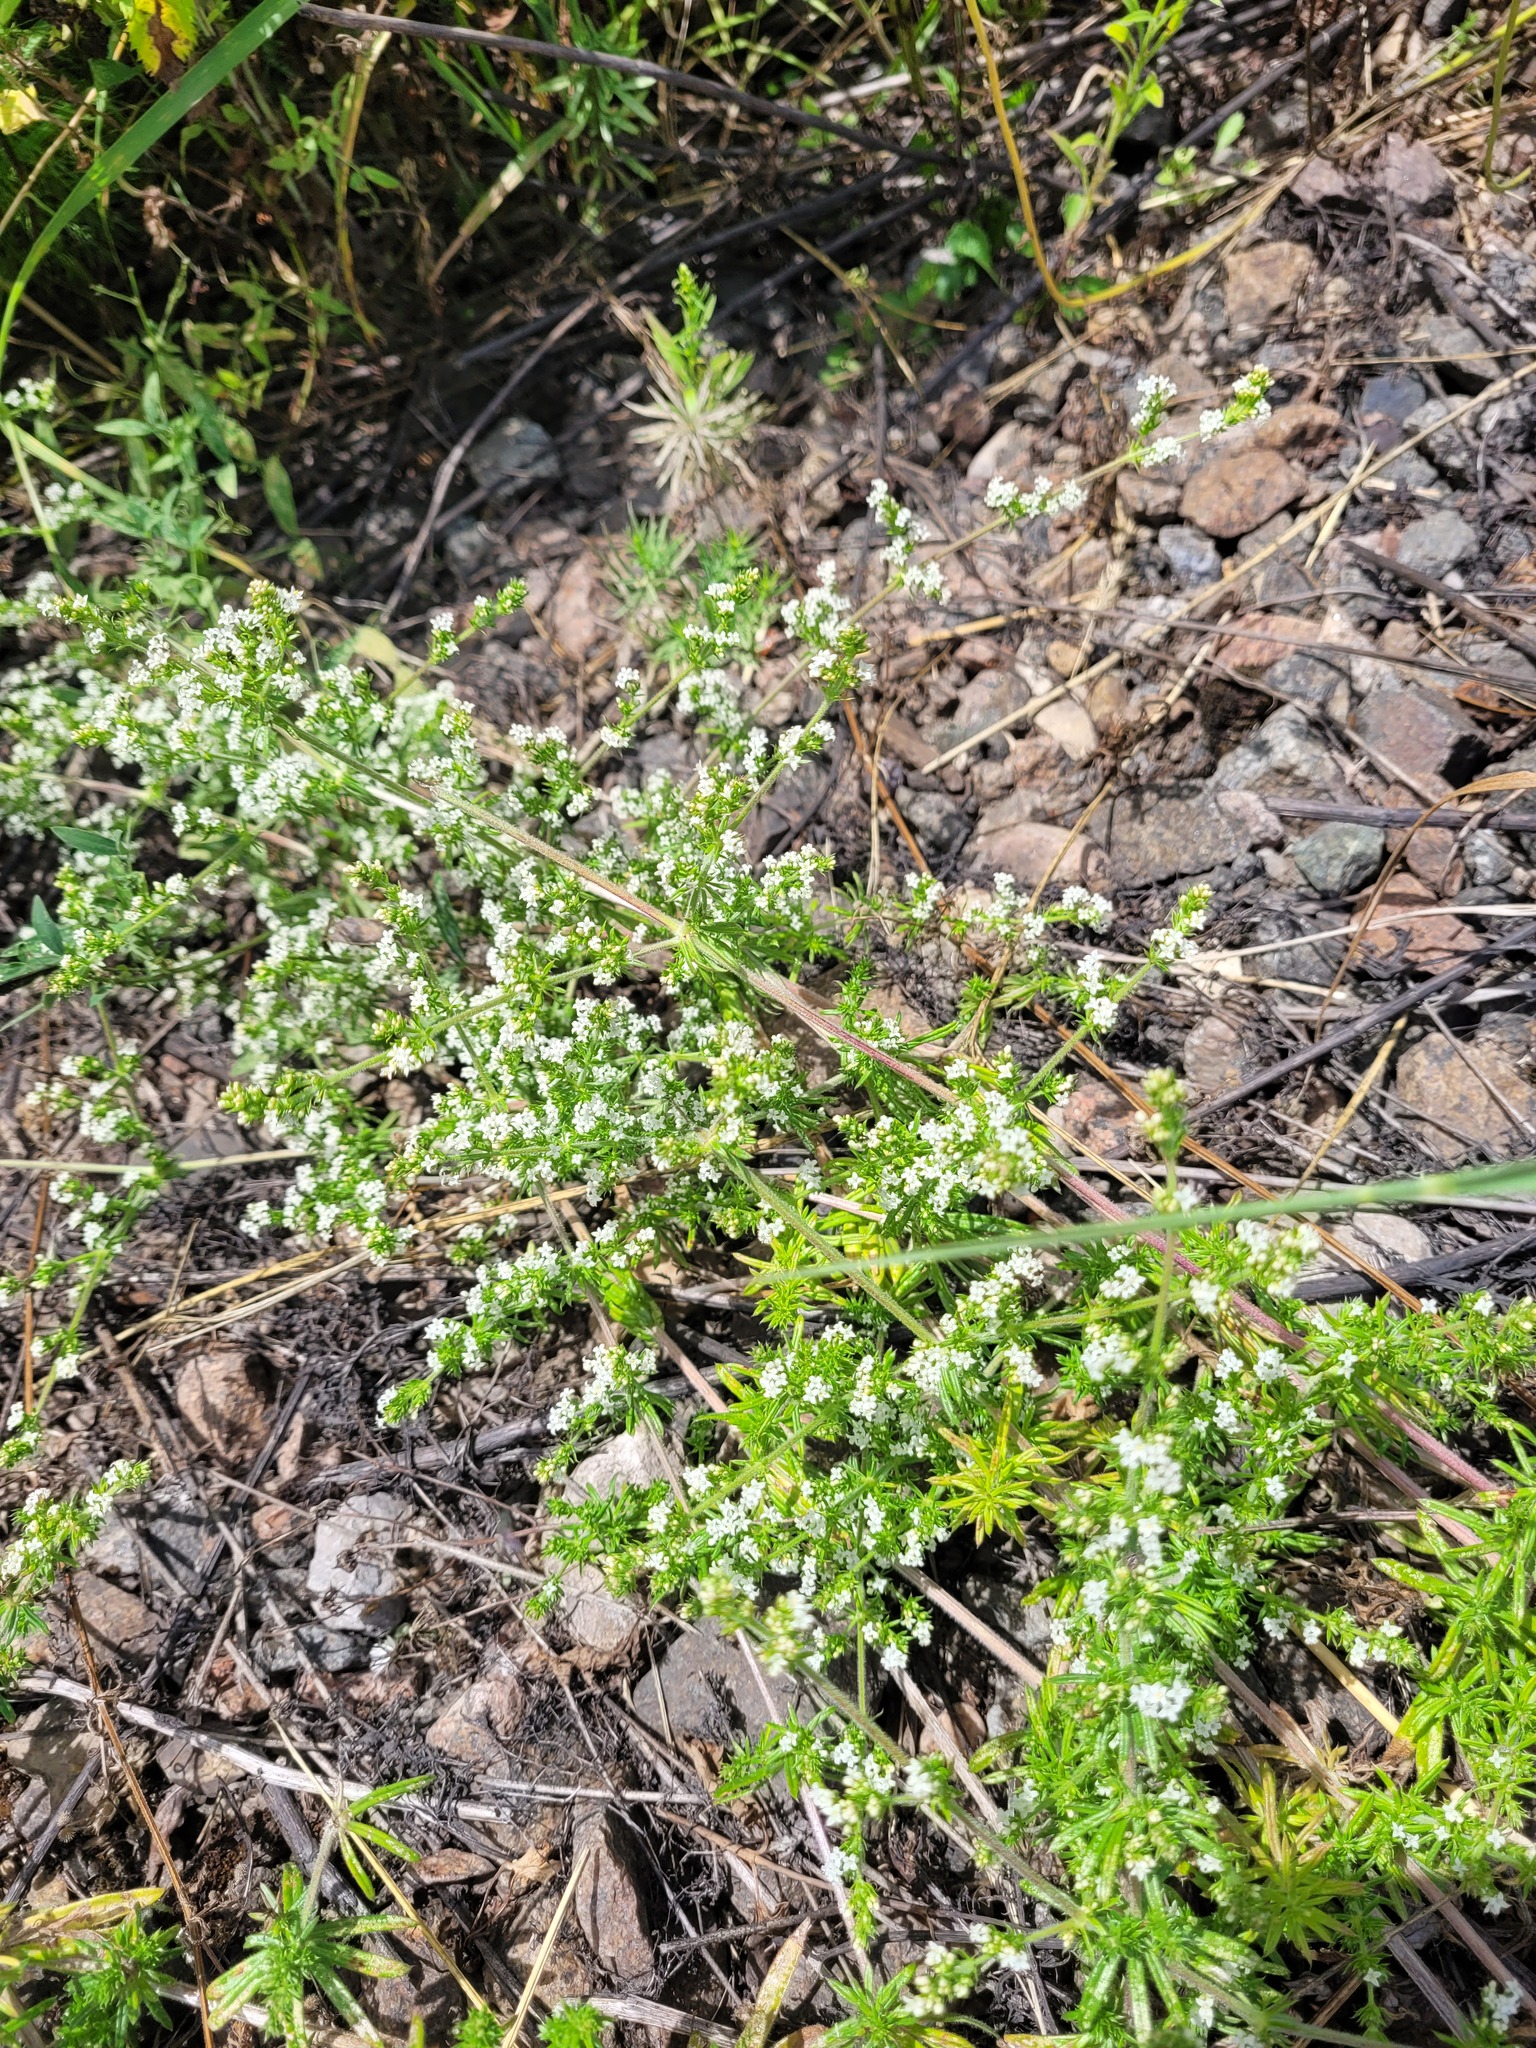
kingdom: Plantae
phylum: Tracheophyta
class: Magnoliopsida
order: Gentianales
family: Rubiaceae
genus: Galium
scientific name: Galium humifusum
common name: Spreading bedstraw
